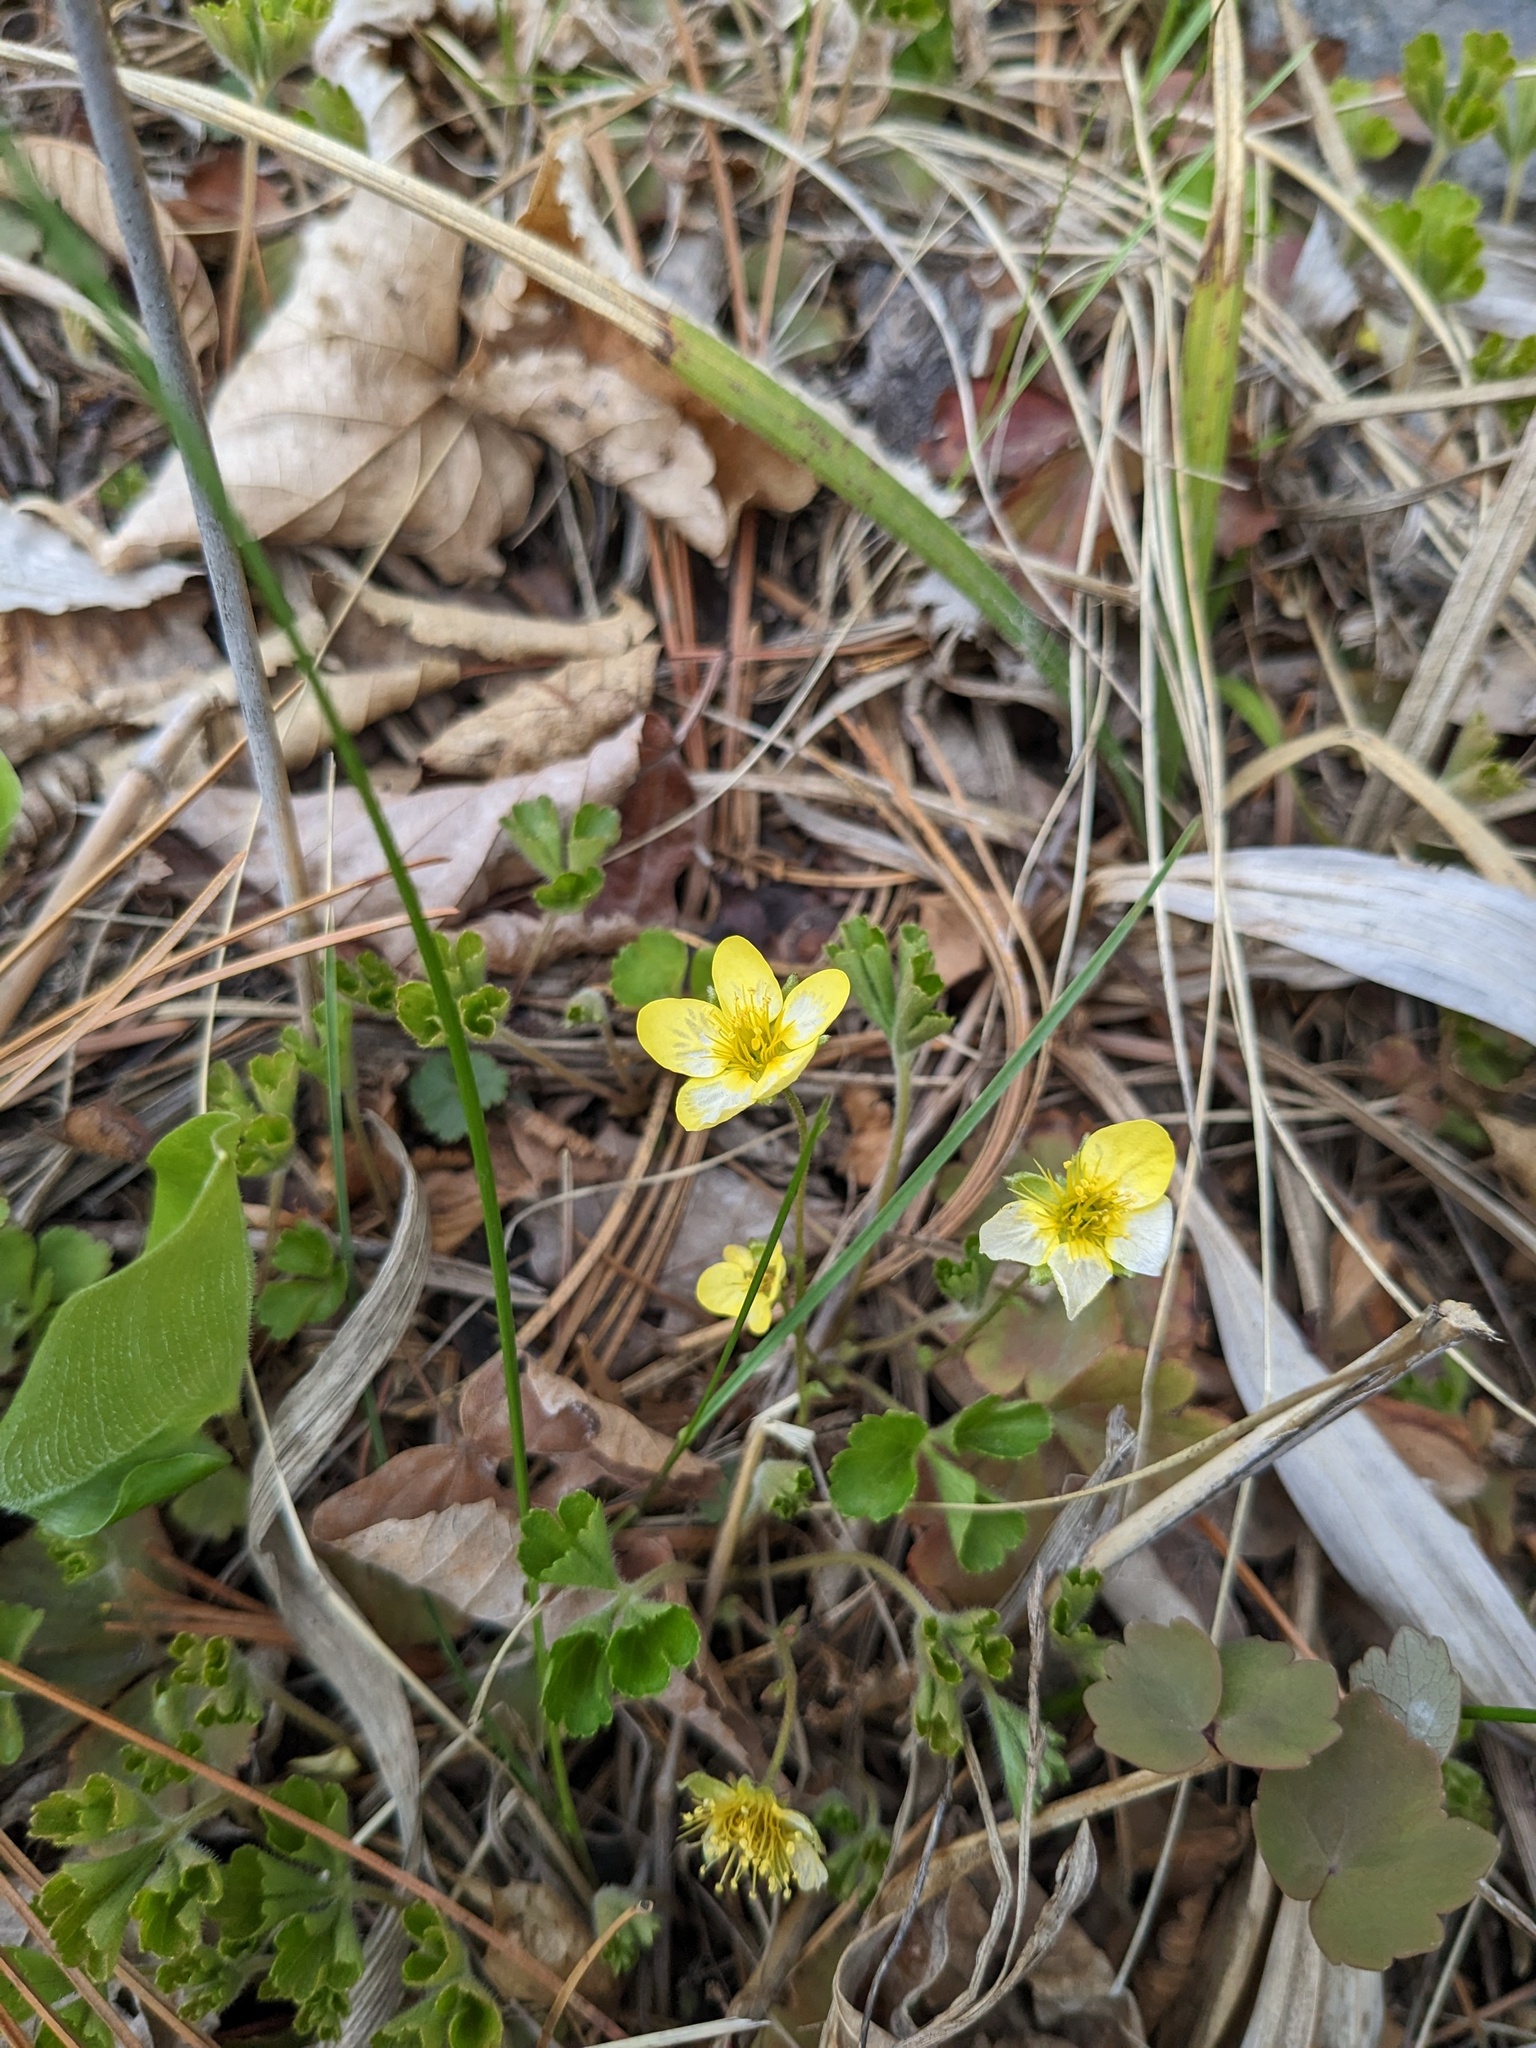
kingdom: Plantae
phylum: Tracheophyta
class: Magnoliopsida
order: Rosales
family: Rosaceae
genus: Geum
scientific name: Geum ternatum
